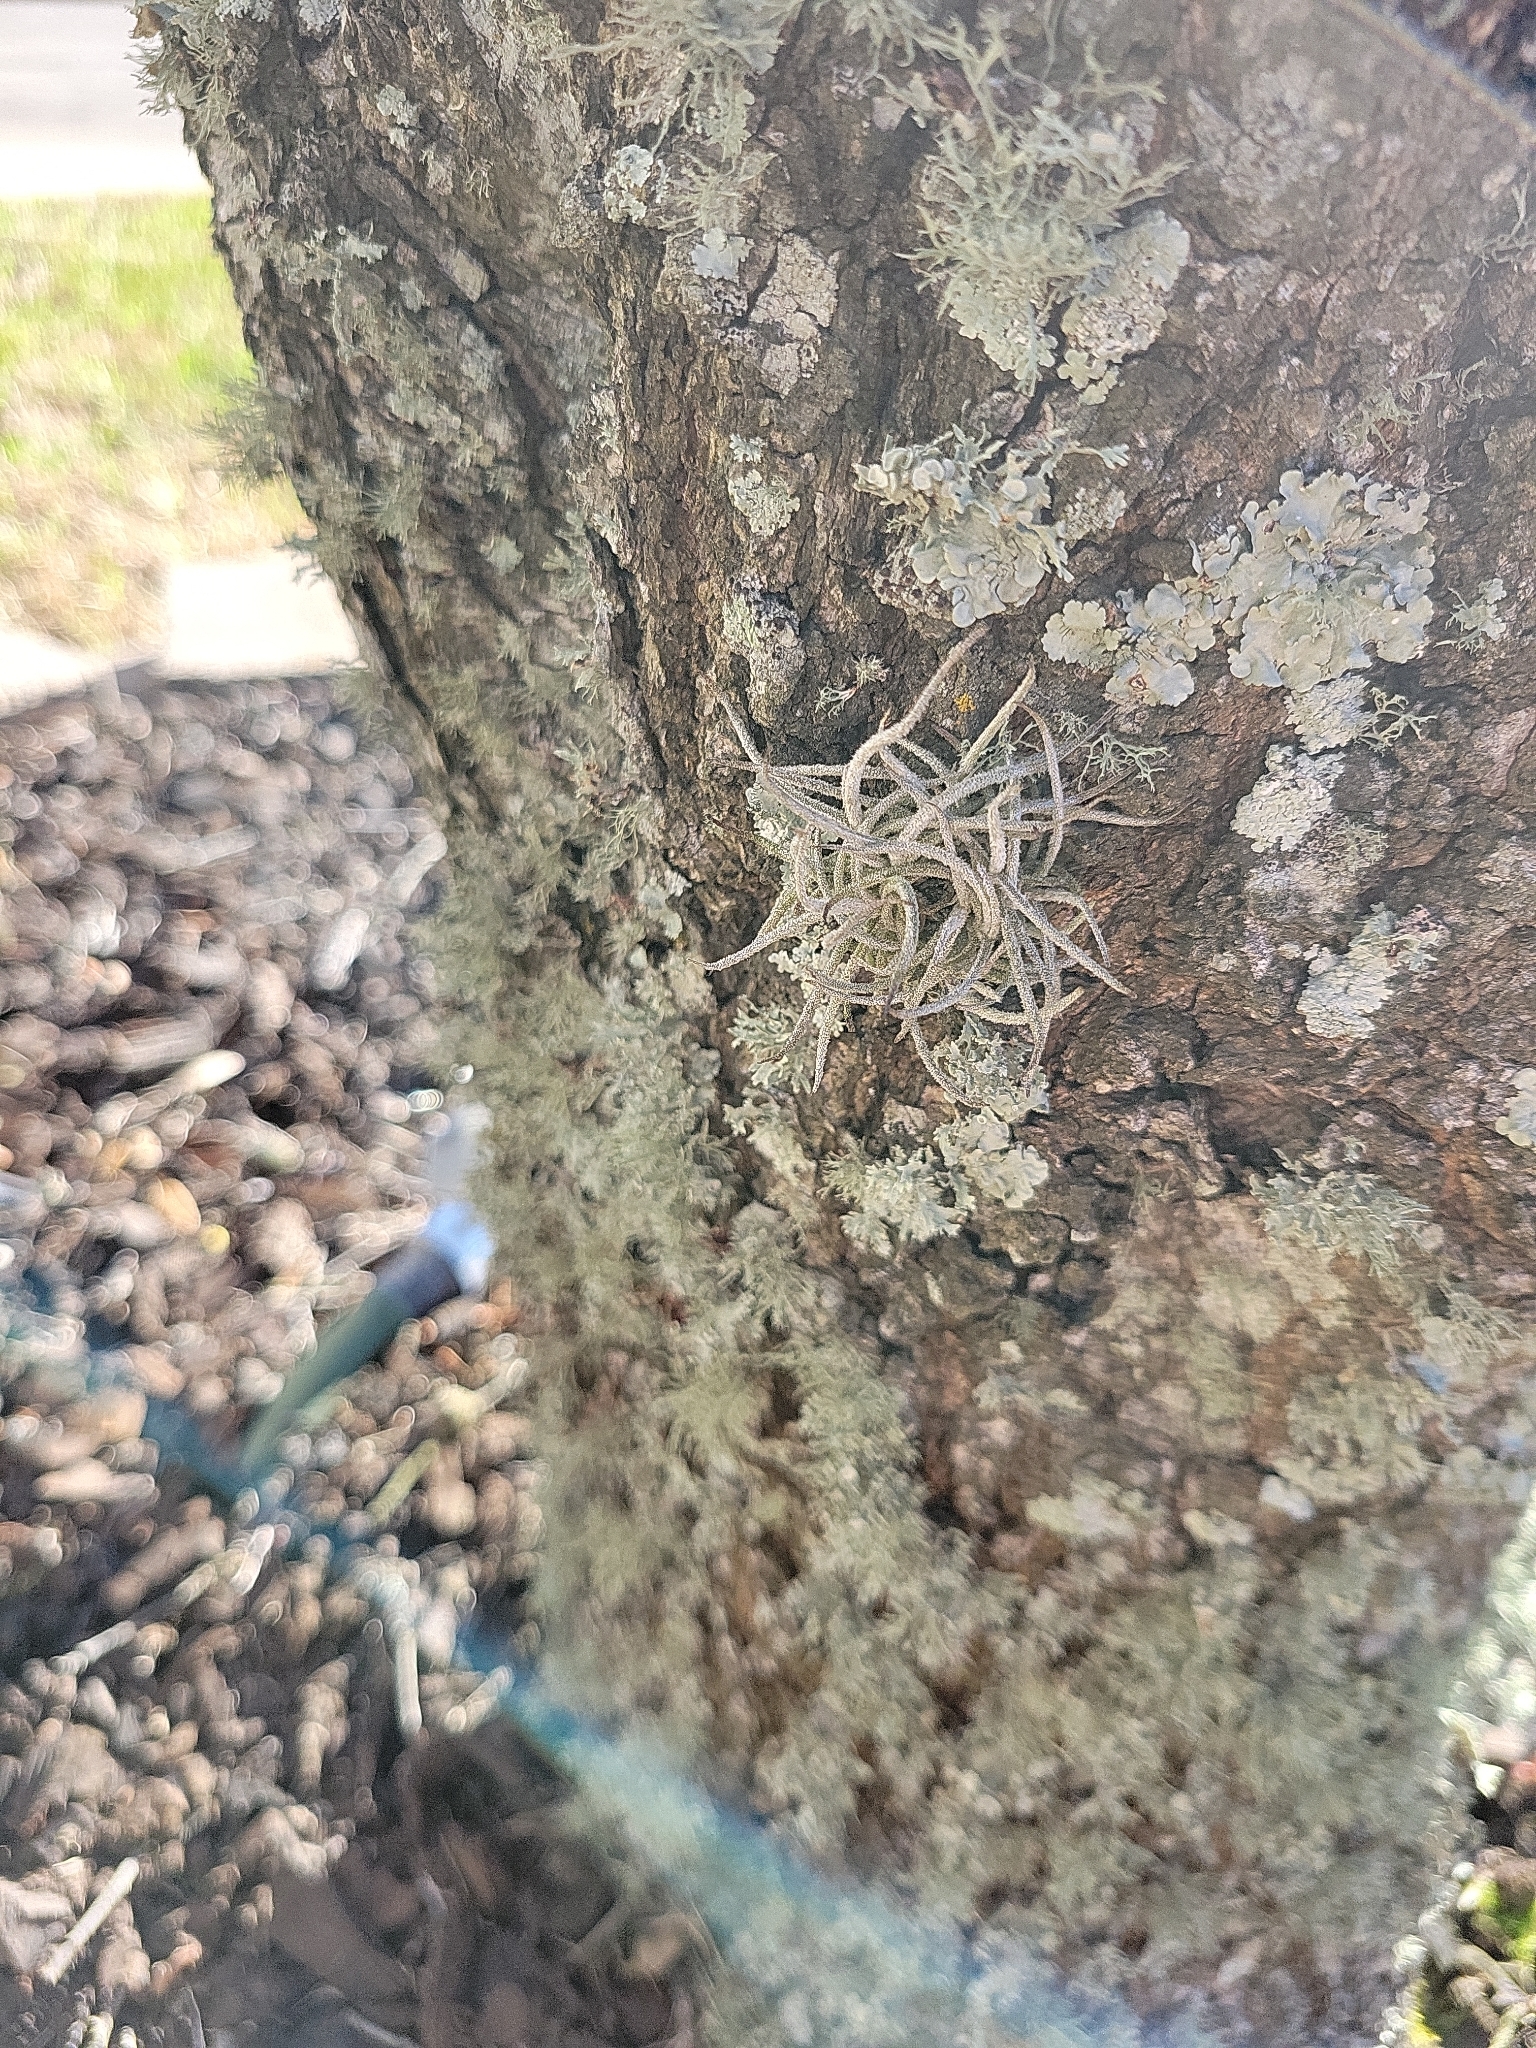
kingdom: Plantae
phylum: Tracheophyta
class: Liliopsida
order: Poales
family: Bromeliaceae
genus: Tillandsia
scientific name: Tillandsia recurvata
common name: Small ballmoss
